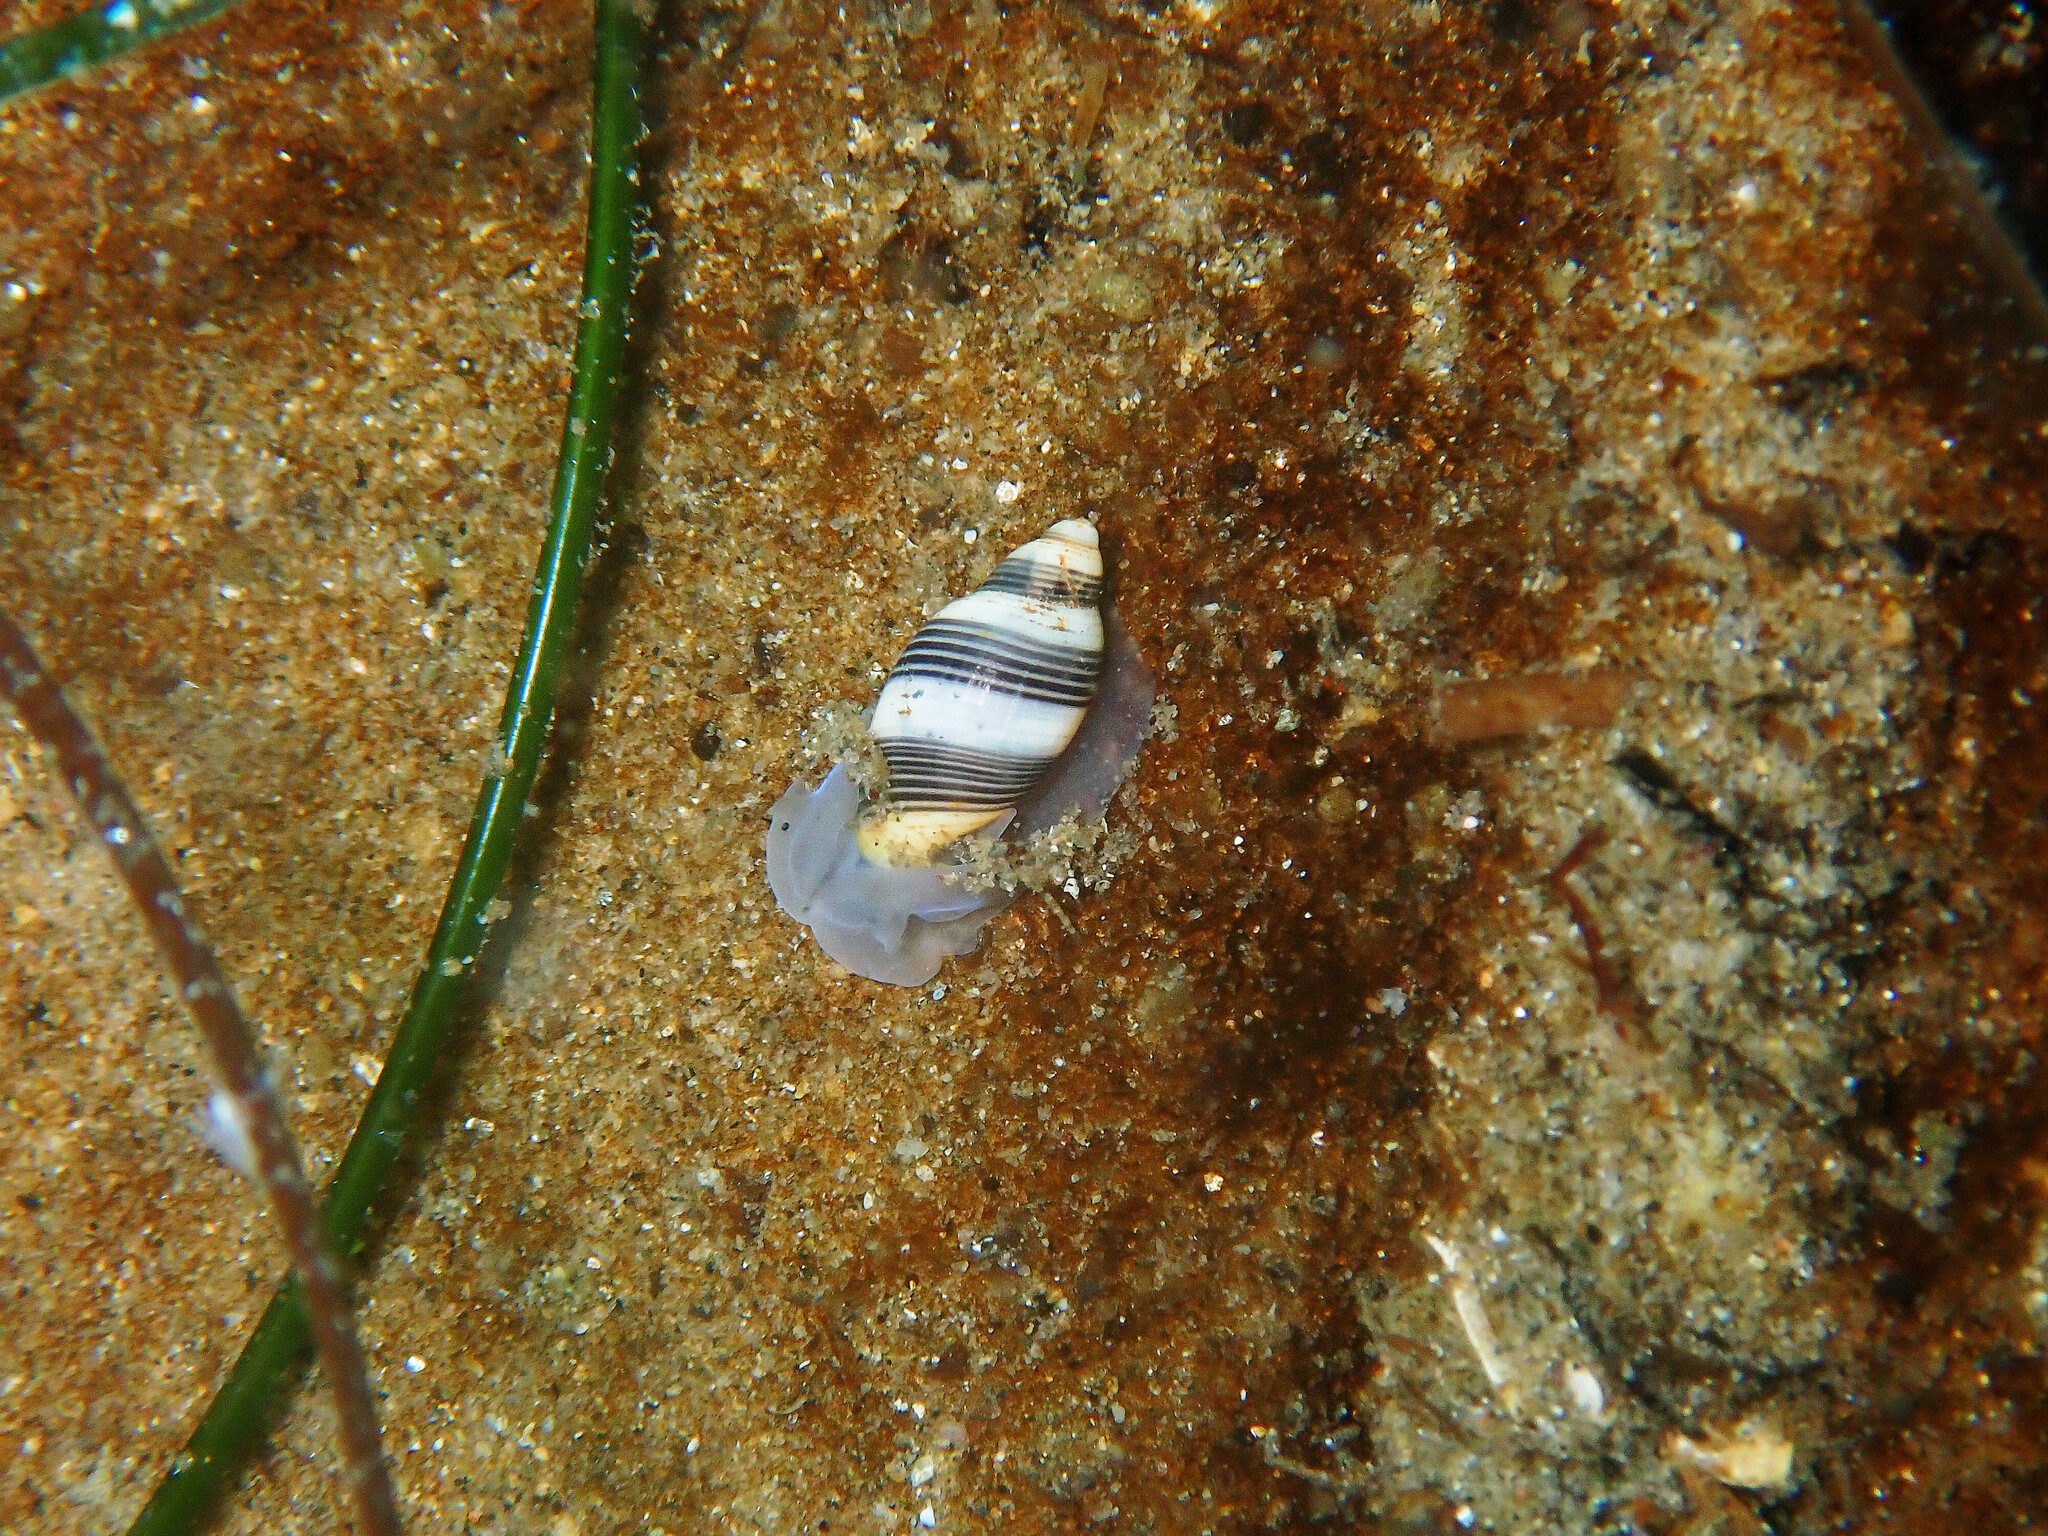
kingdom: Animalia
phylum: Mollusca
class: Gastropoda
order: Cephalaspidea
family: Acteonidae
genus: Rictaxis
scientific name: Rictaxis punctocaelatus
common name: Carpenter's acteon
